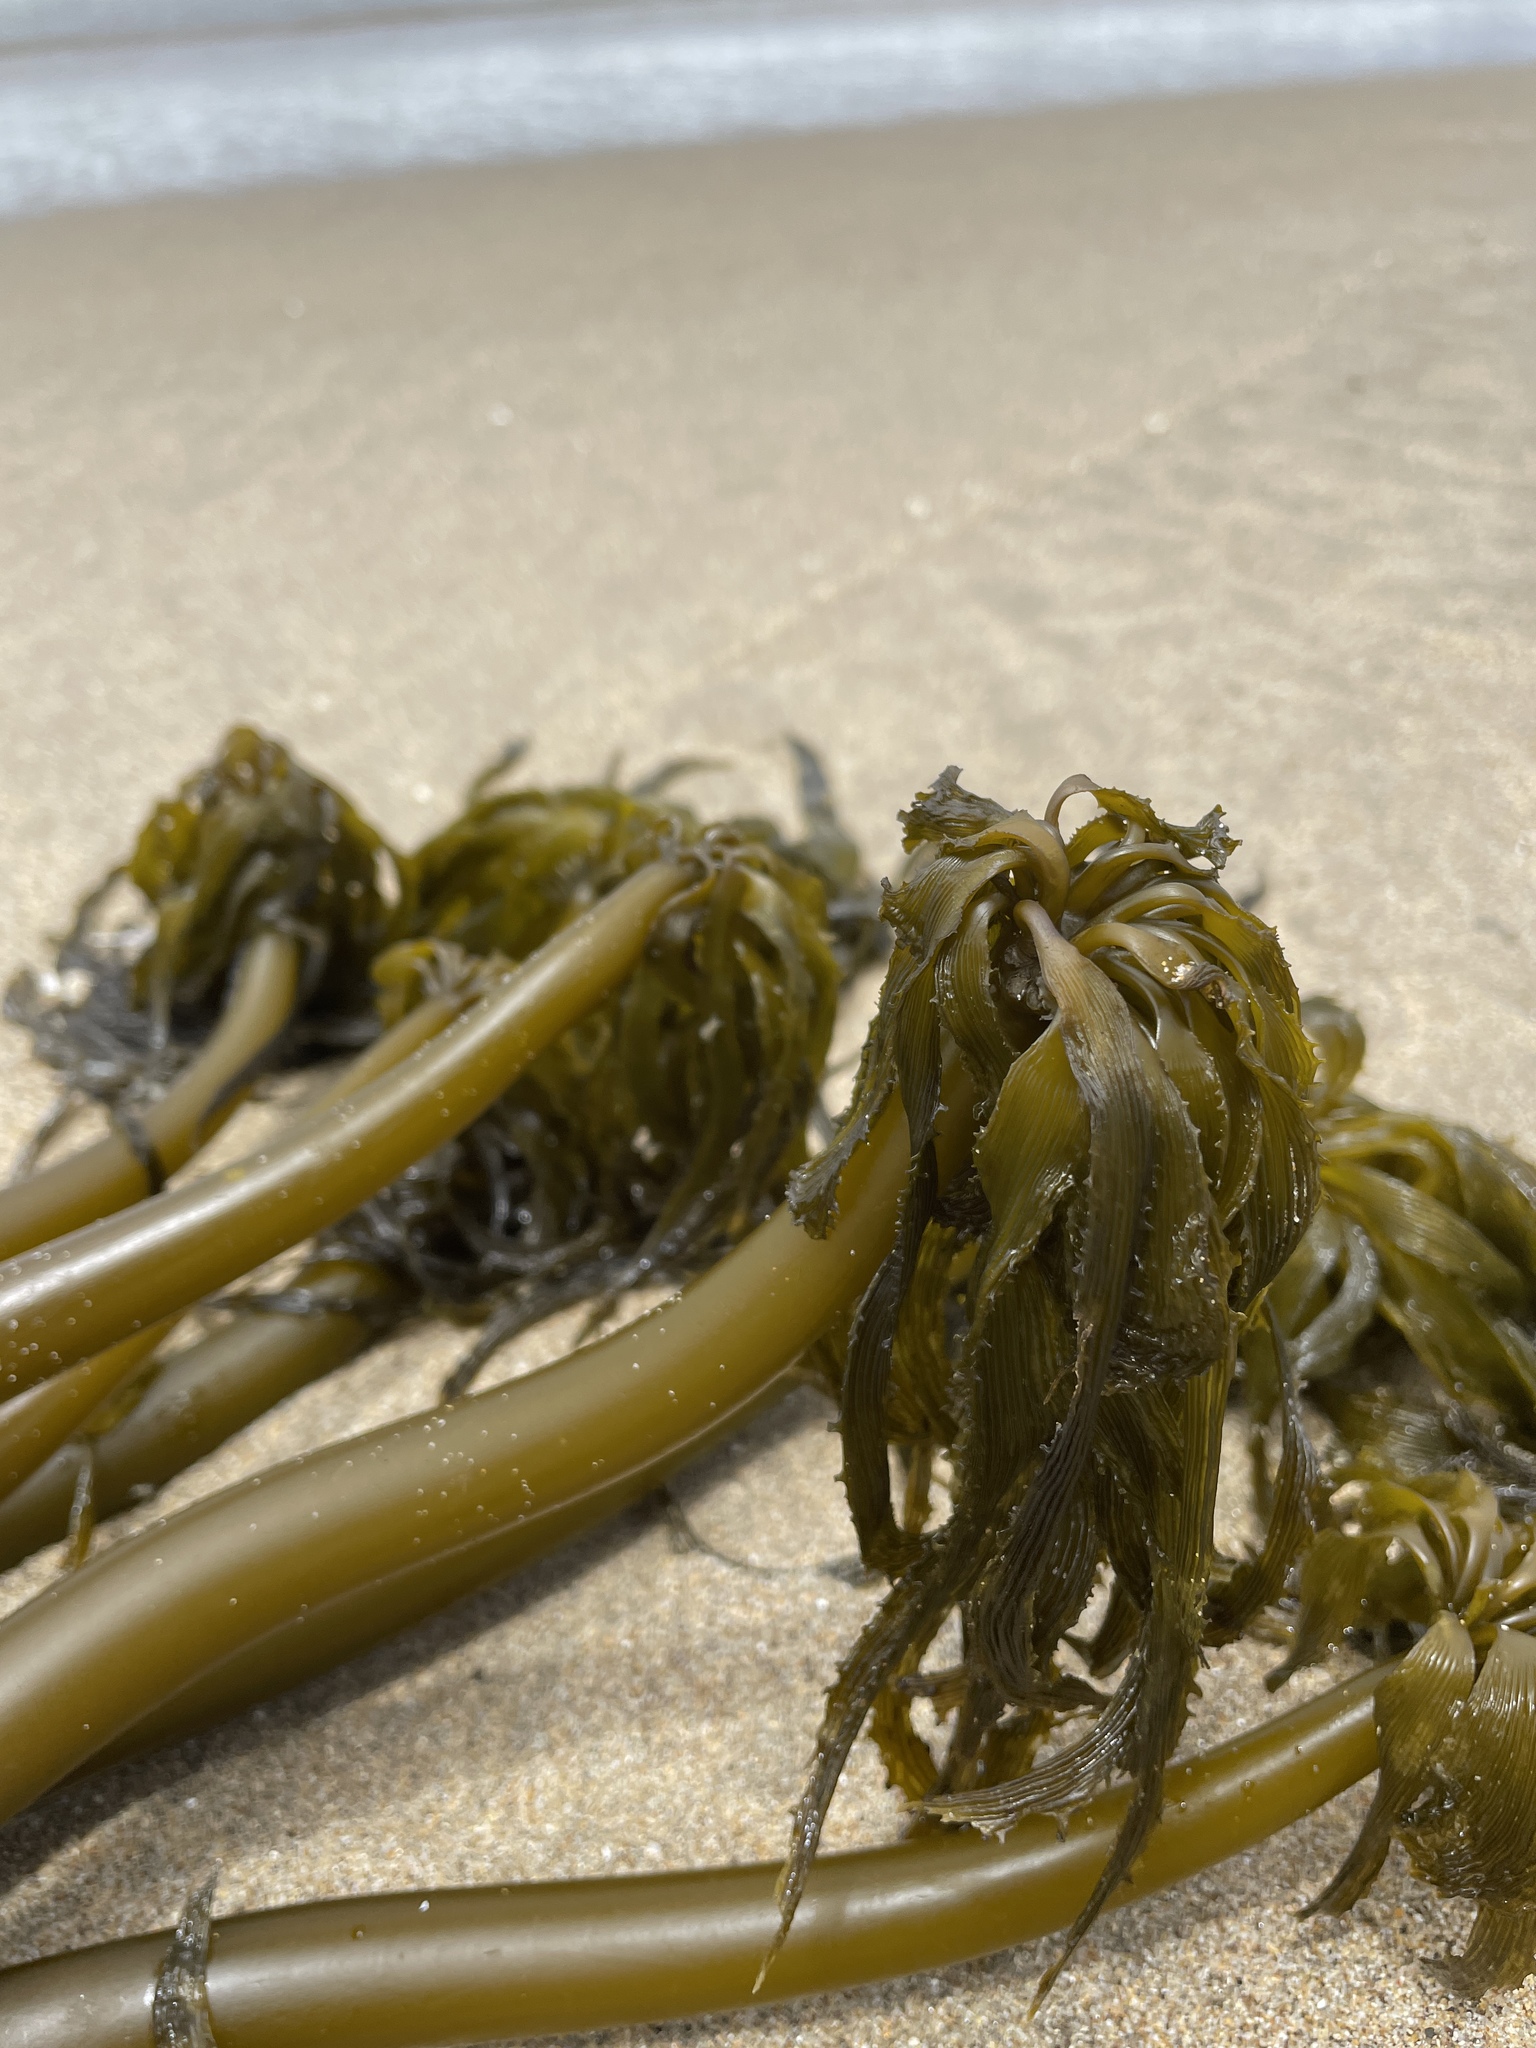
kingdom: Chromista
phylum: Ochrophyta
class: Phaeophyceae
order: Laminariales
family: Laminariaceae
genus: Postelsia
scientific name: Postelsia palmiformis
